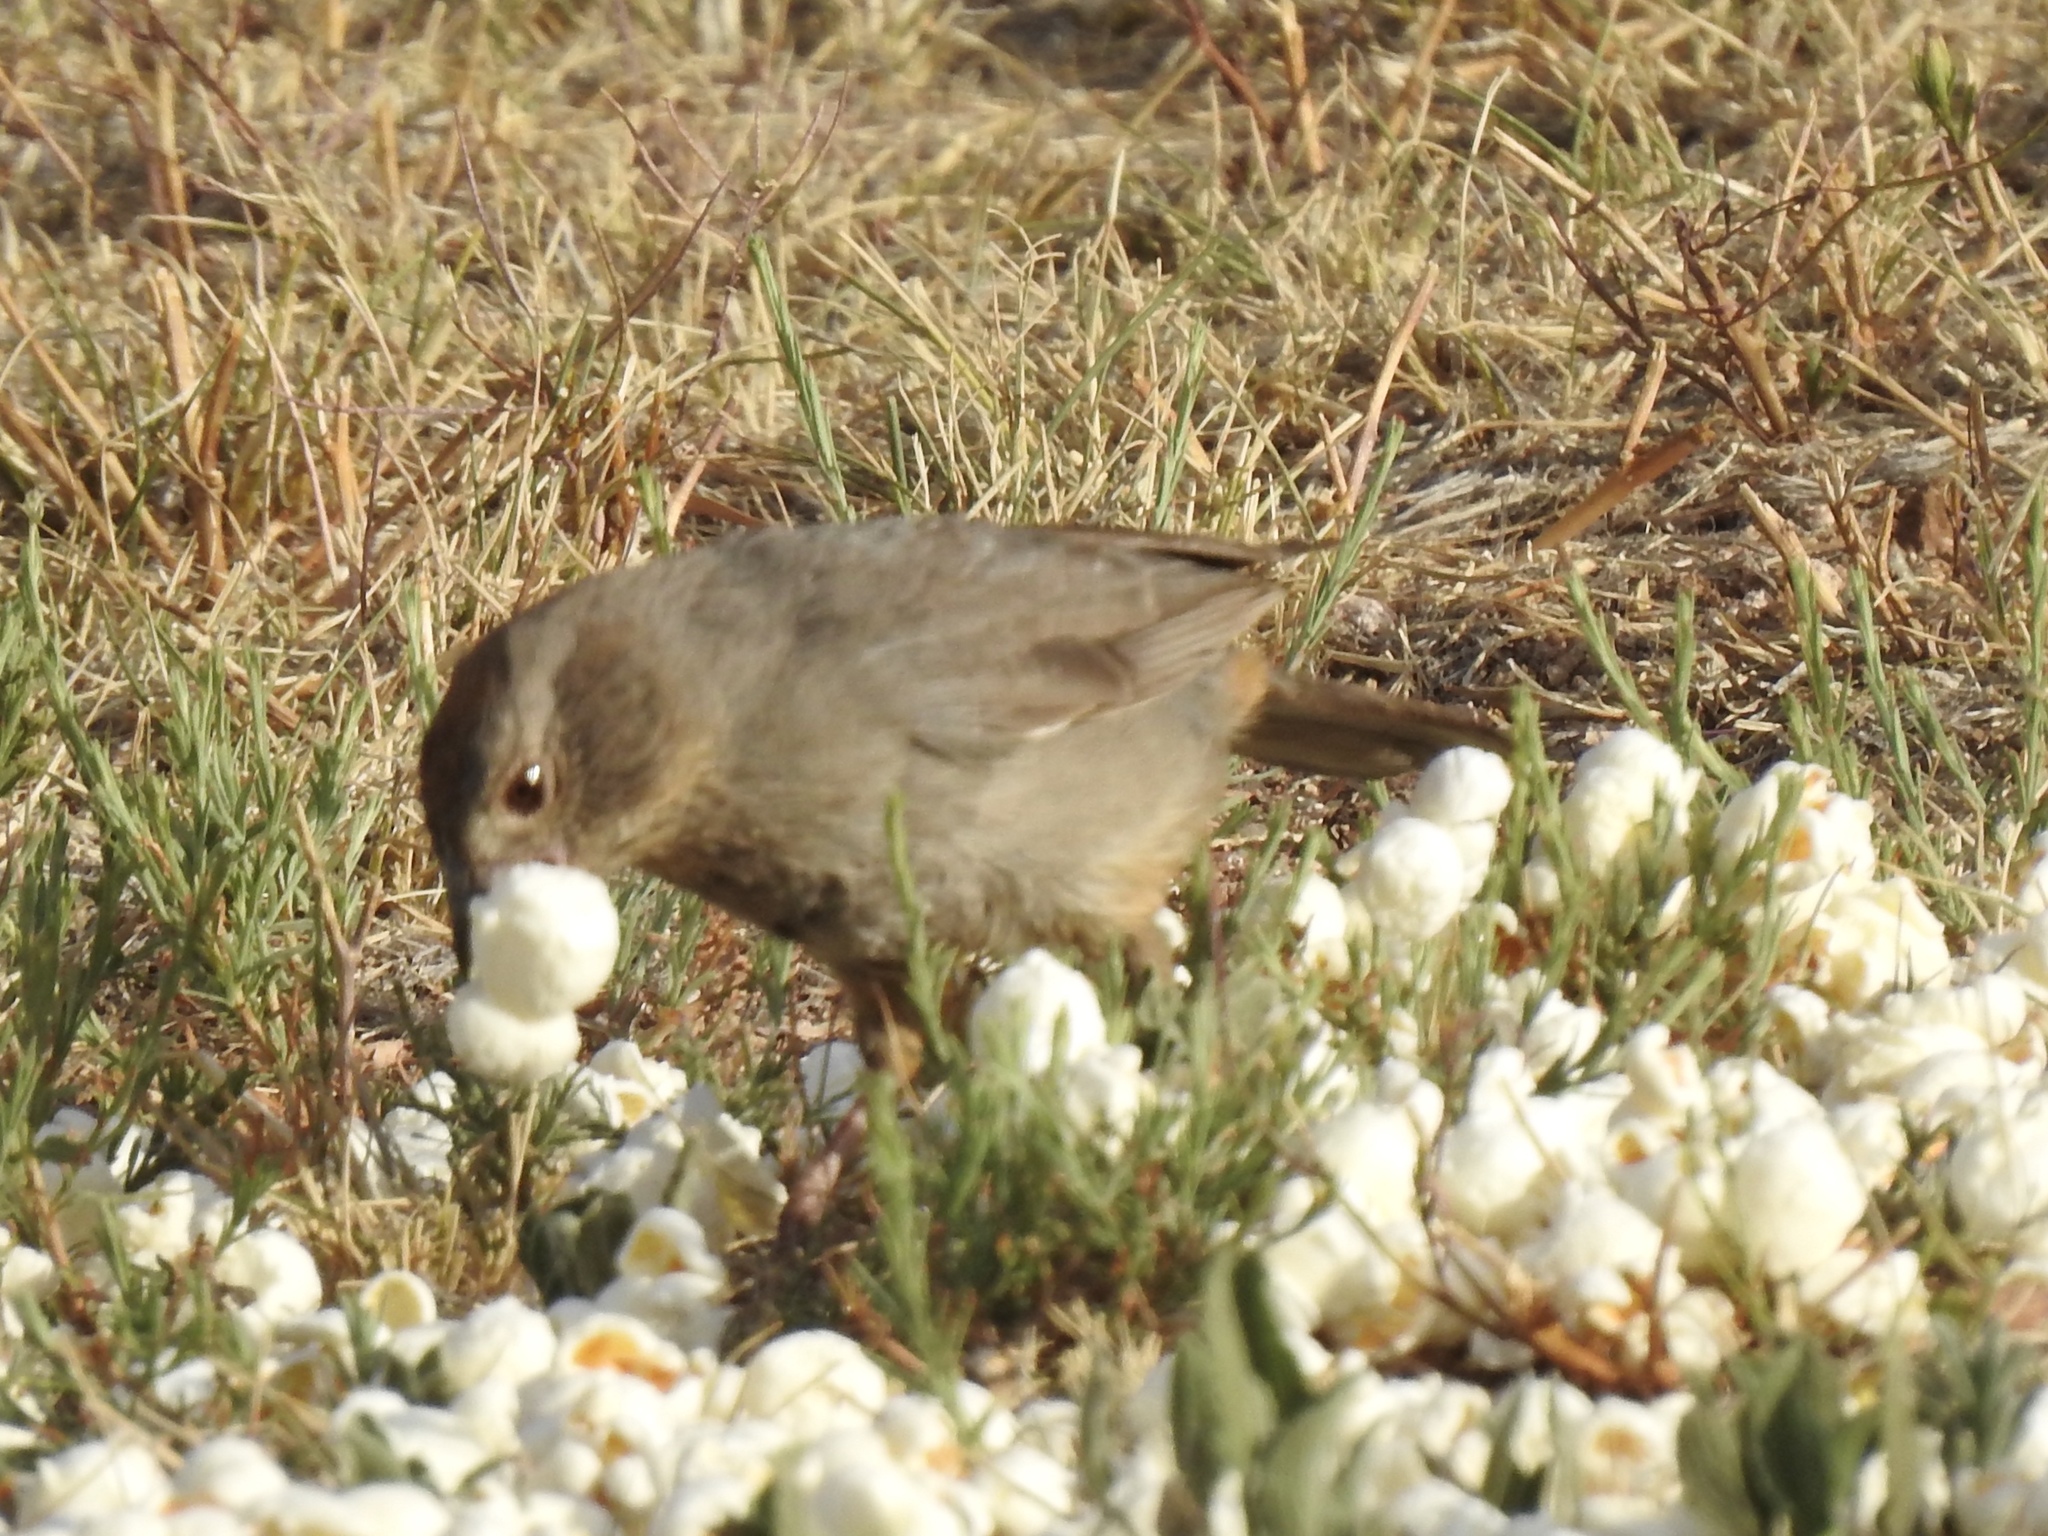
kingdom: Animalia
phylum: Chordata
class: Aves
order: Passeriformes
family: Passerellidae
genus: Melozone
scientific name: Melozone fusca
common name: Canyon towhee
